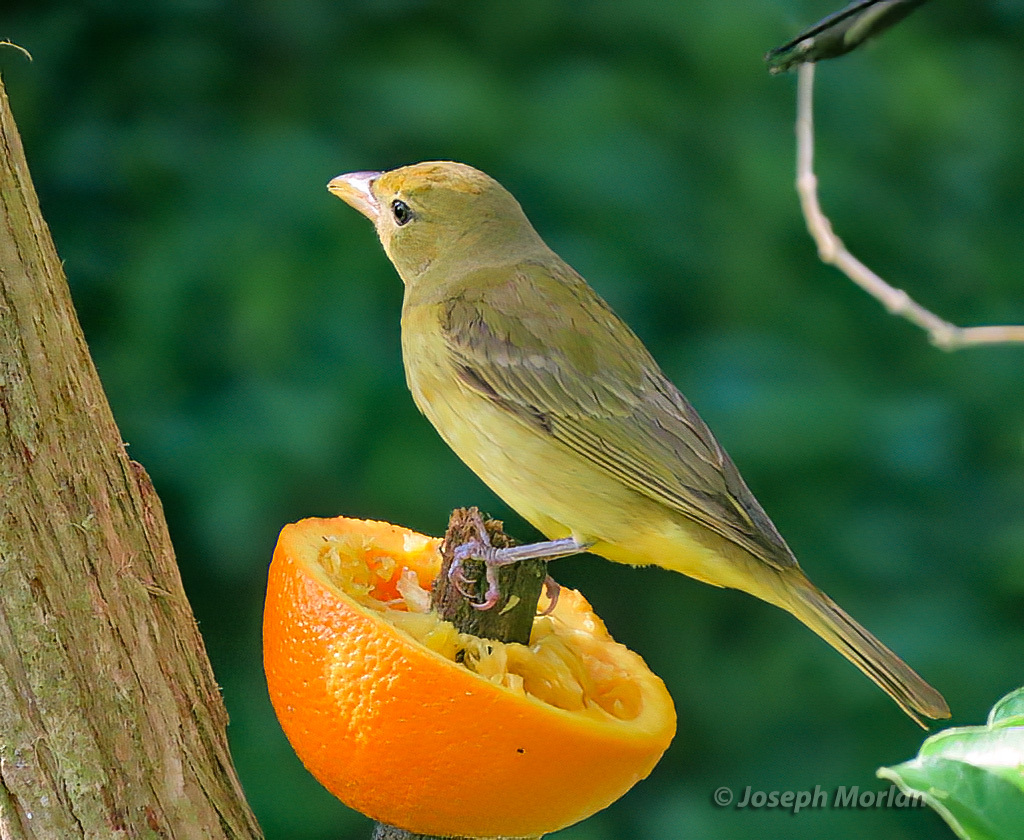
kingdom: Animalia
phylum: Chordata
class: Aves
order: Passeriformes
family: Cardinalidae
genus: Piranga
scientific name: Piranga rubra
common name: Summer tanager
